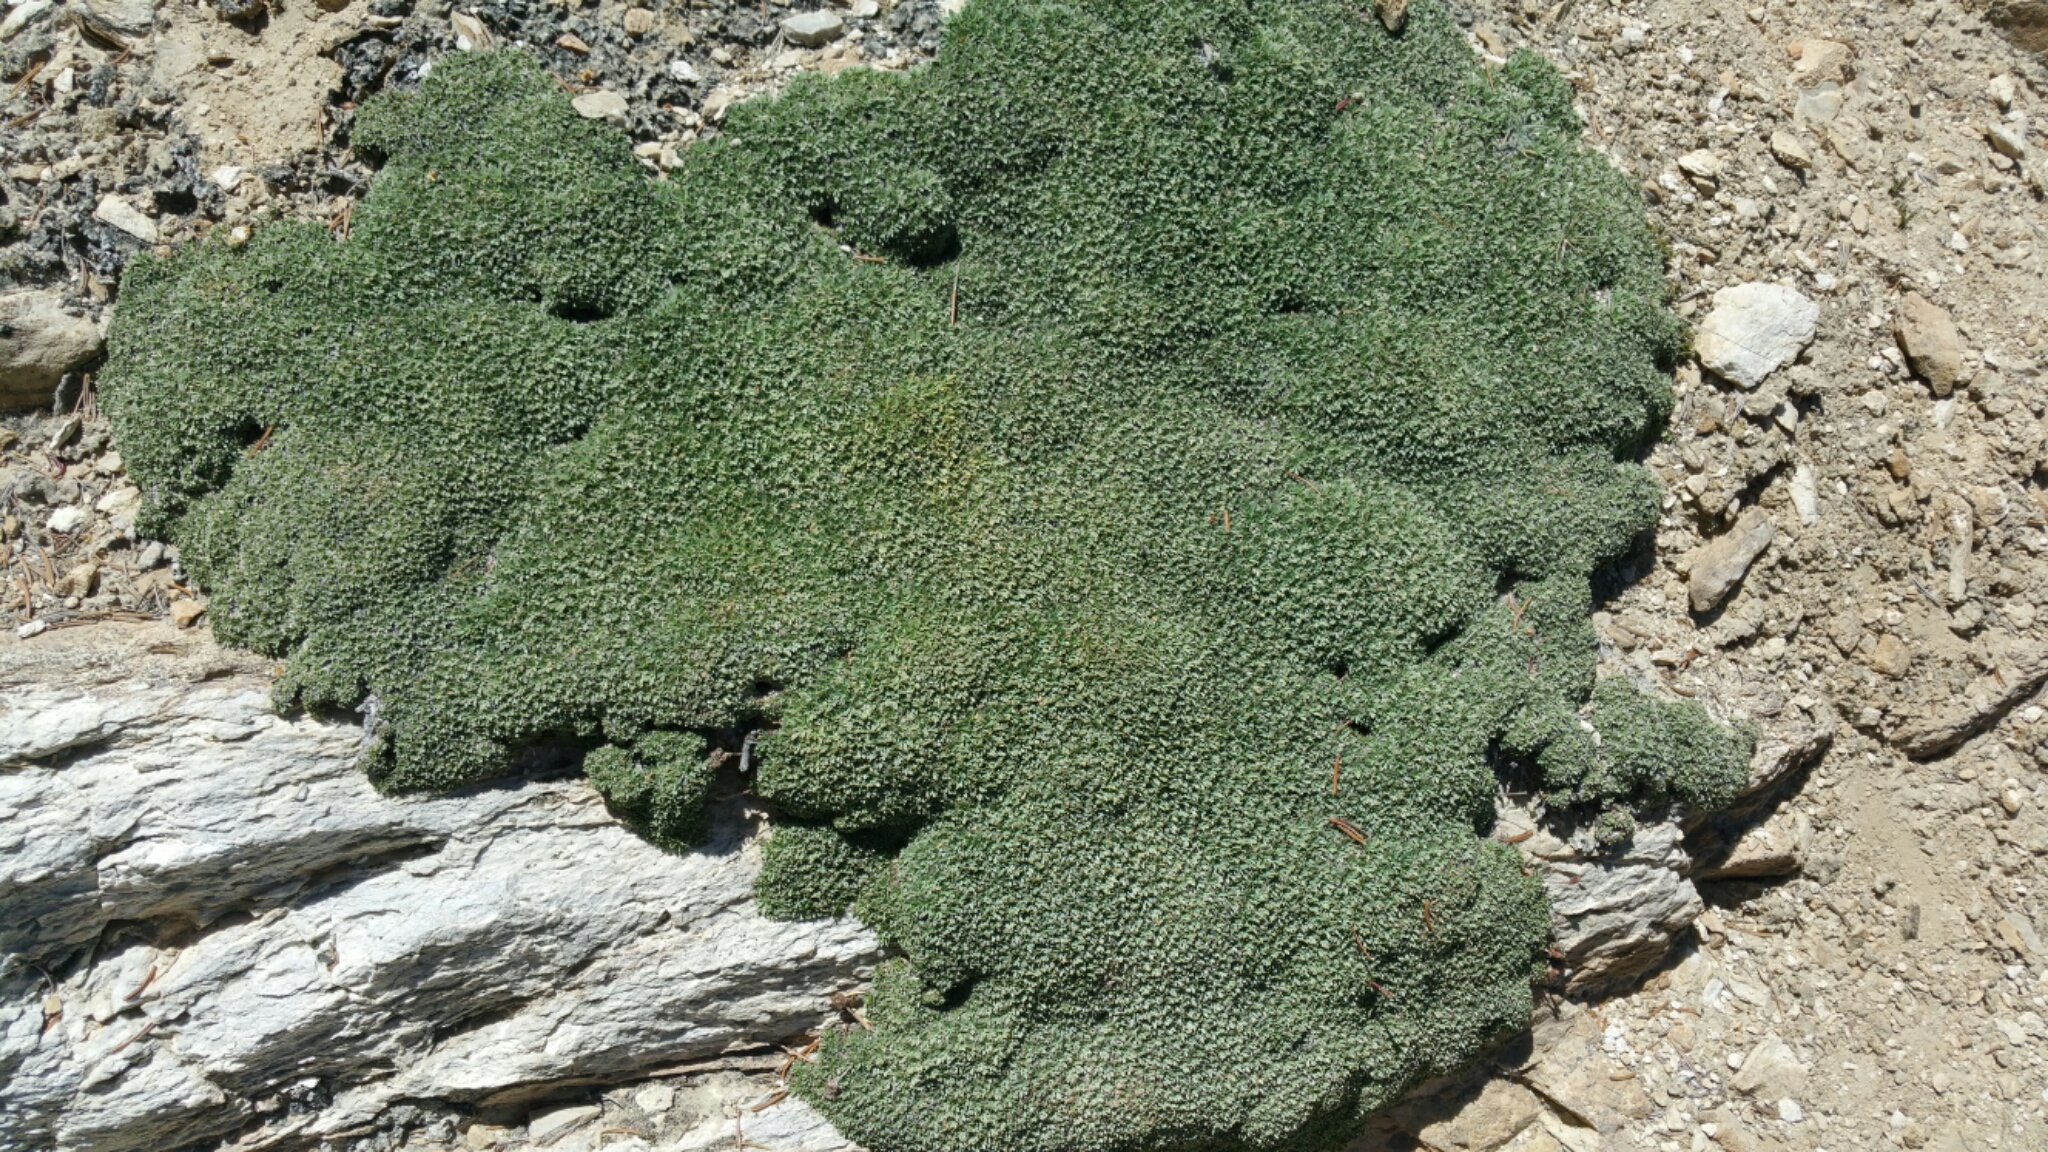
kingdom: Plantae
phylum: Tracheophyta
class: Magnoliopsida
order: Rosales
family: Rosaceae
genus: Petrophytum
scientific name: Petrophytum caespitosum
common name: Mat rockspirea
